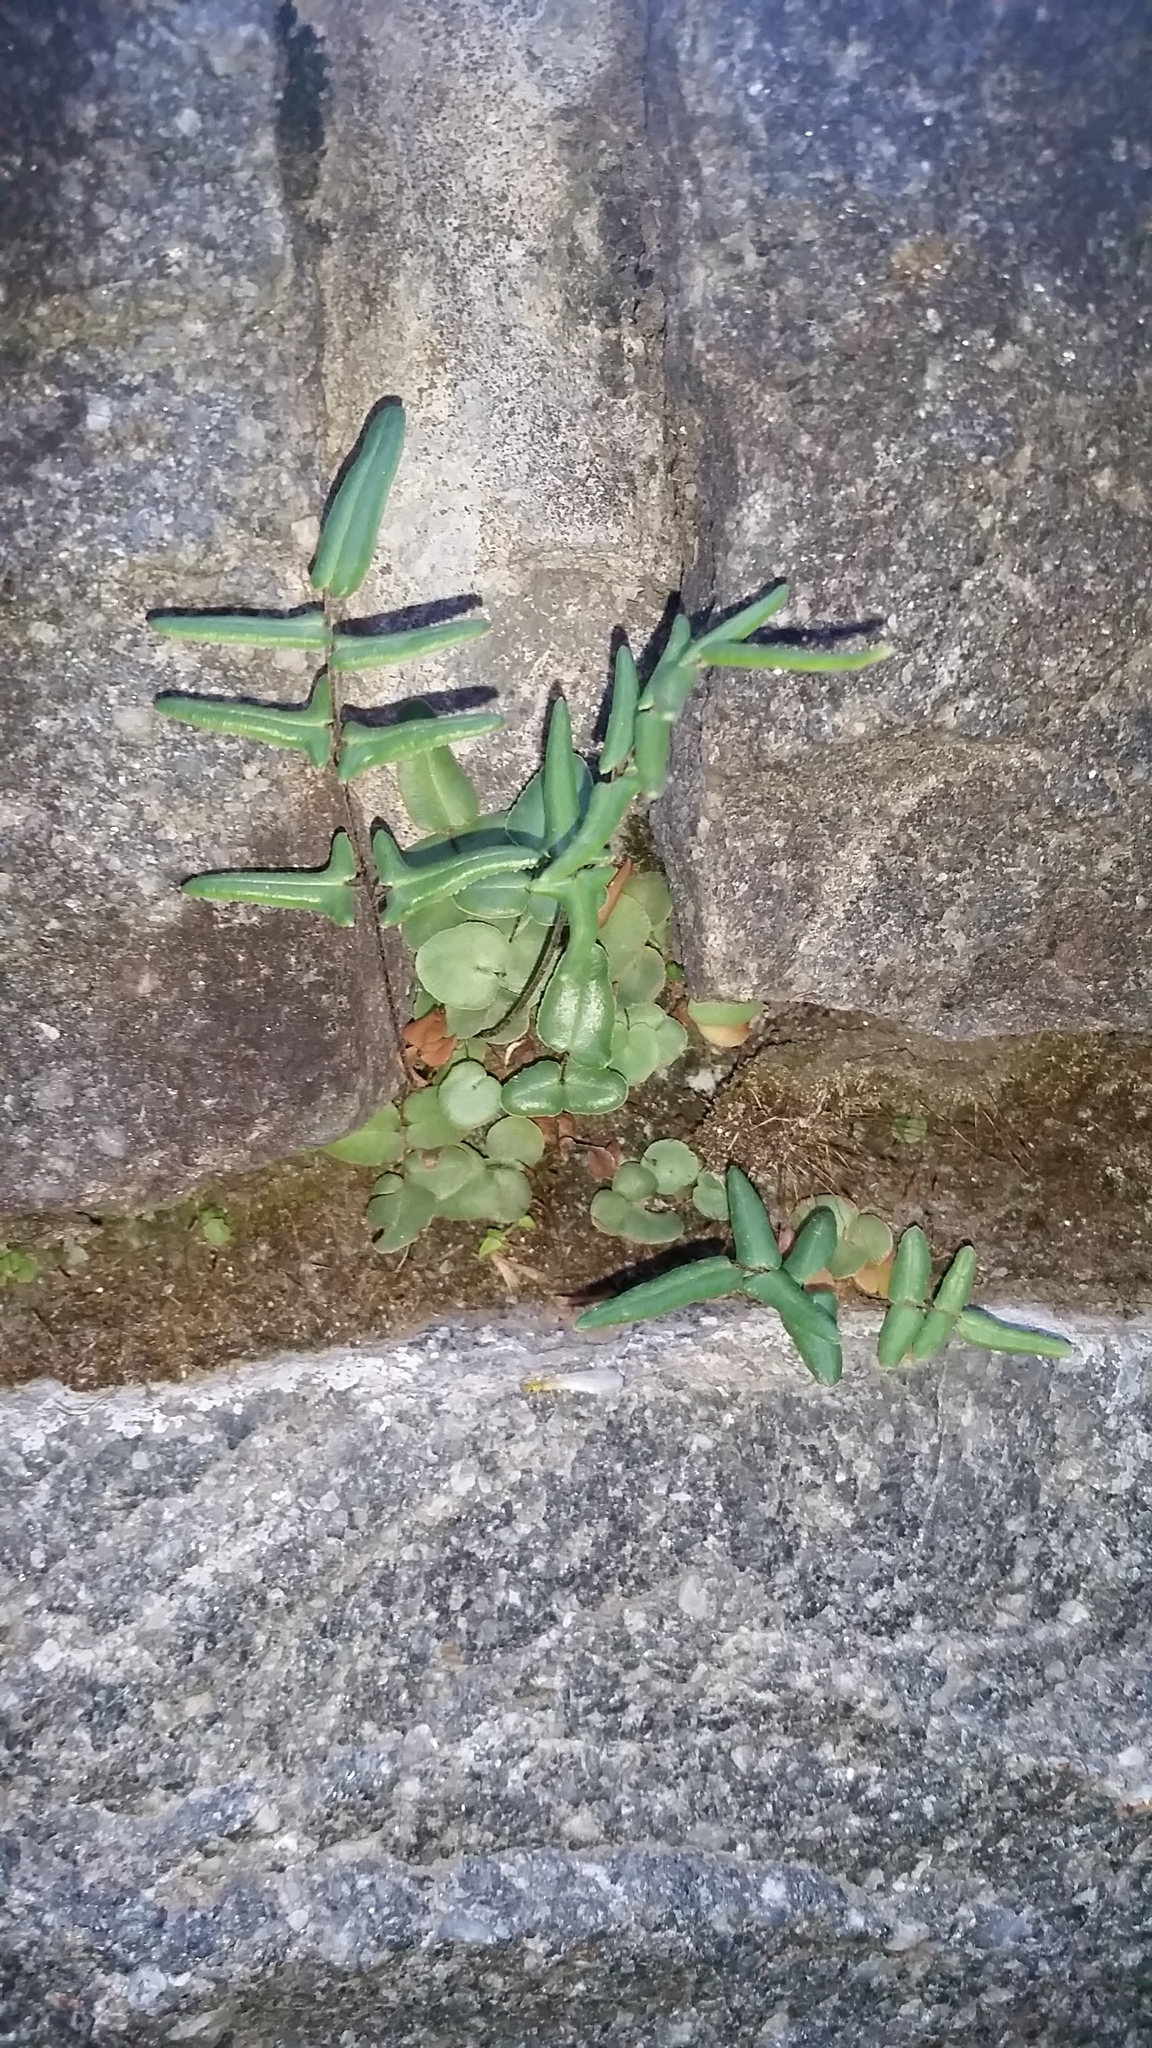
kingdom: Plantae
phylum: Tracheophyta
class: Polypodiopsida
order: Polypodiales
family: Pteridaceae
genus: Pellaea
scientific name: Pellaea atropurpurea
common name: Hairy cliffbrake
